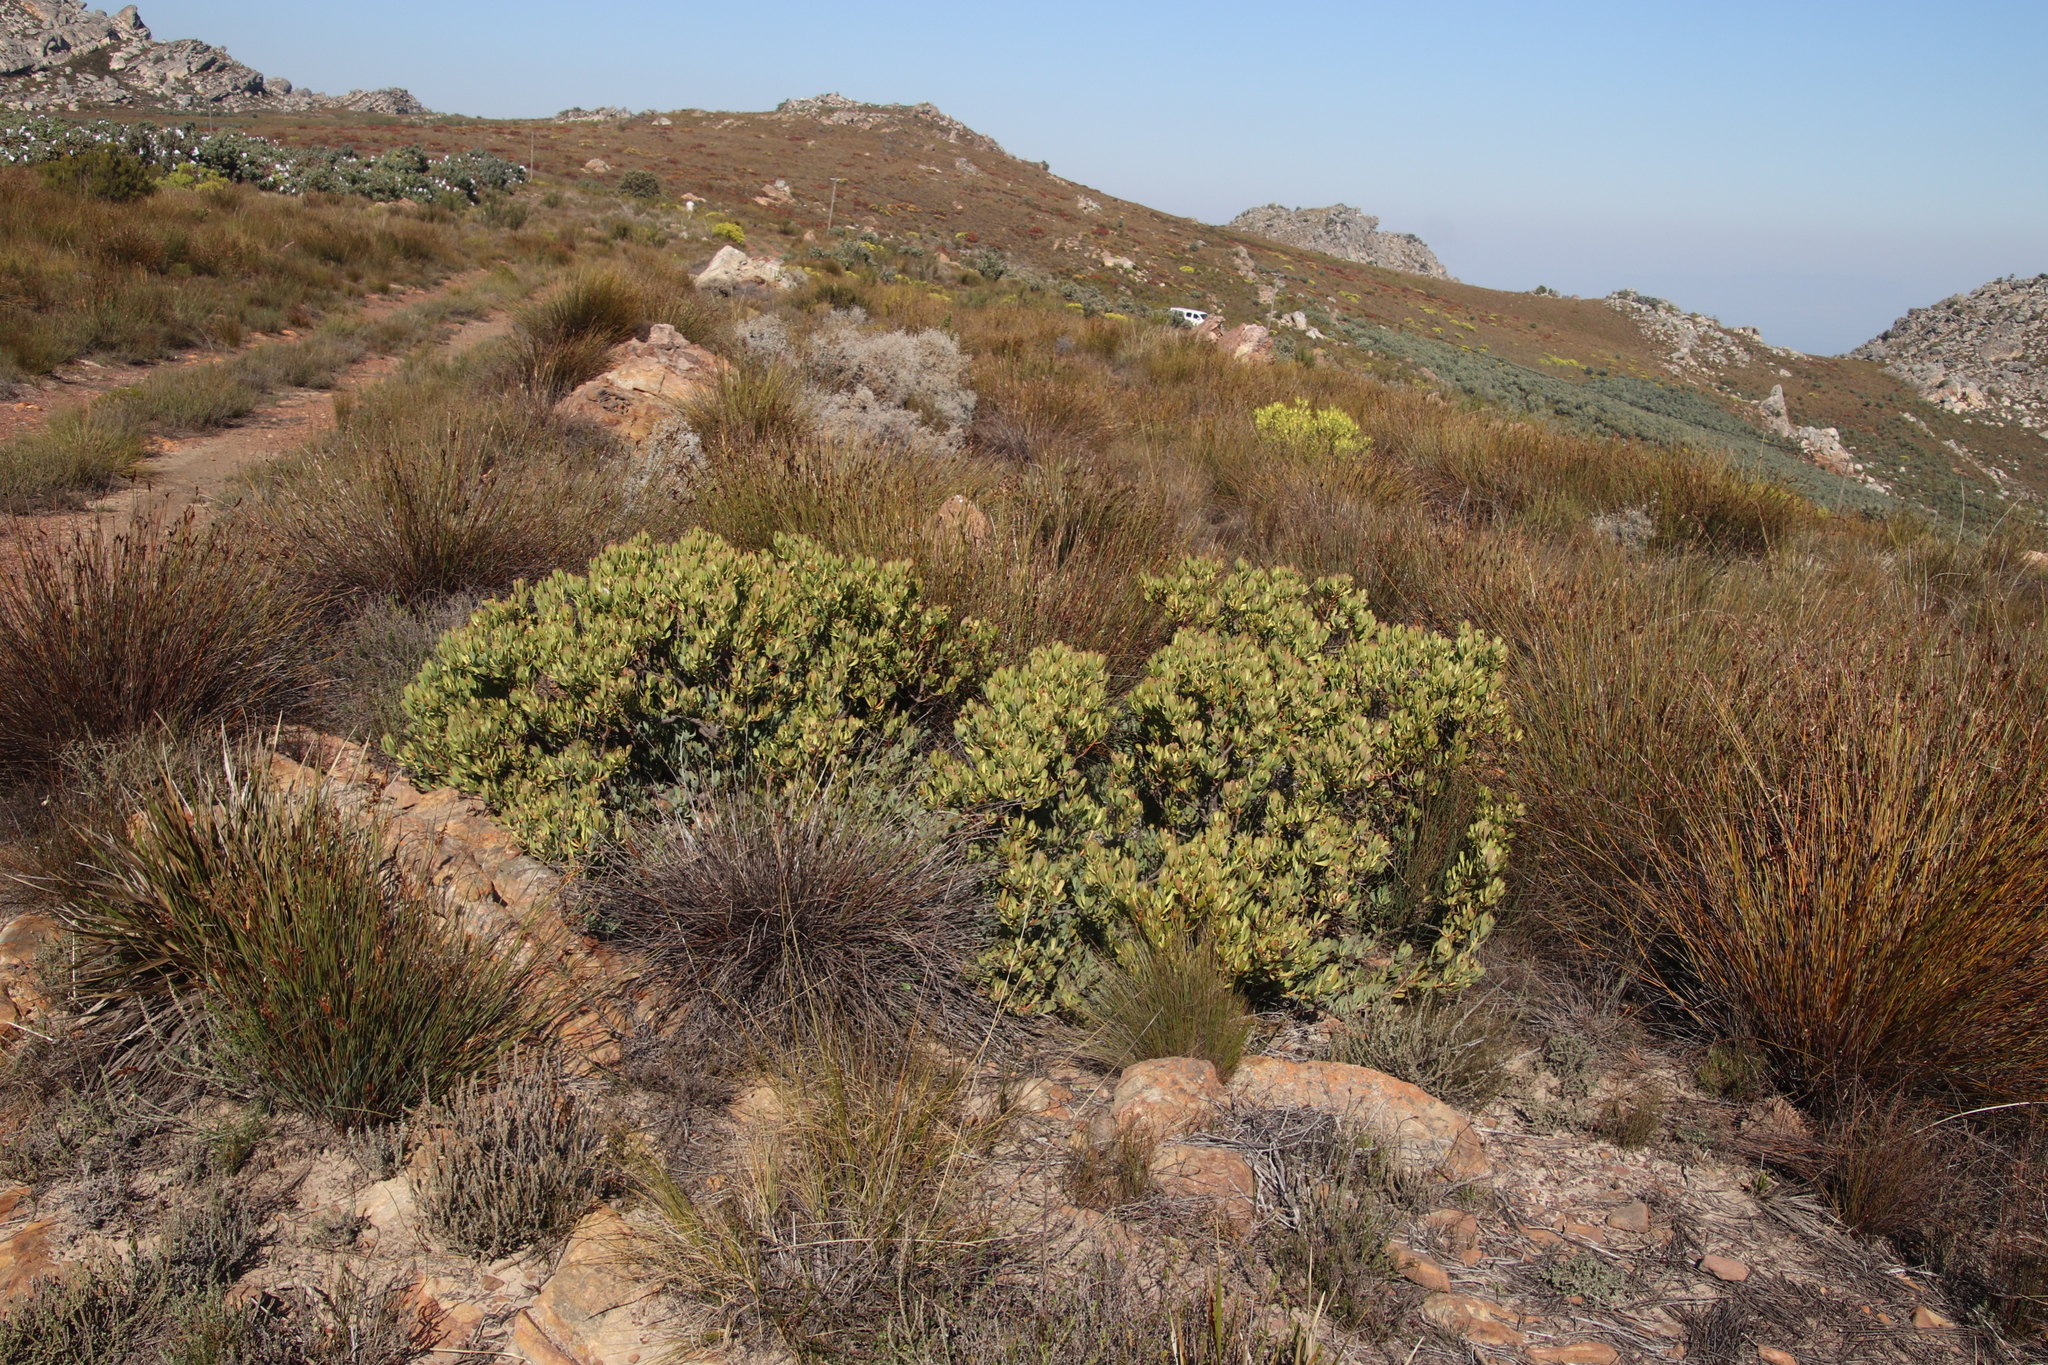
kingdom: Plantae
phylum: Tracheophyta
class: Magnoliopsida
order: Proteales
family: Proteaceae
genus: Leucadendron
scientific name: Leucadendron arcuatum
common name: Red-edge conebush
